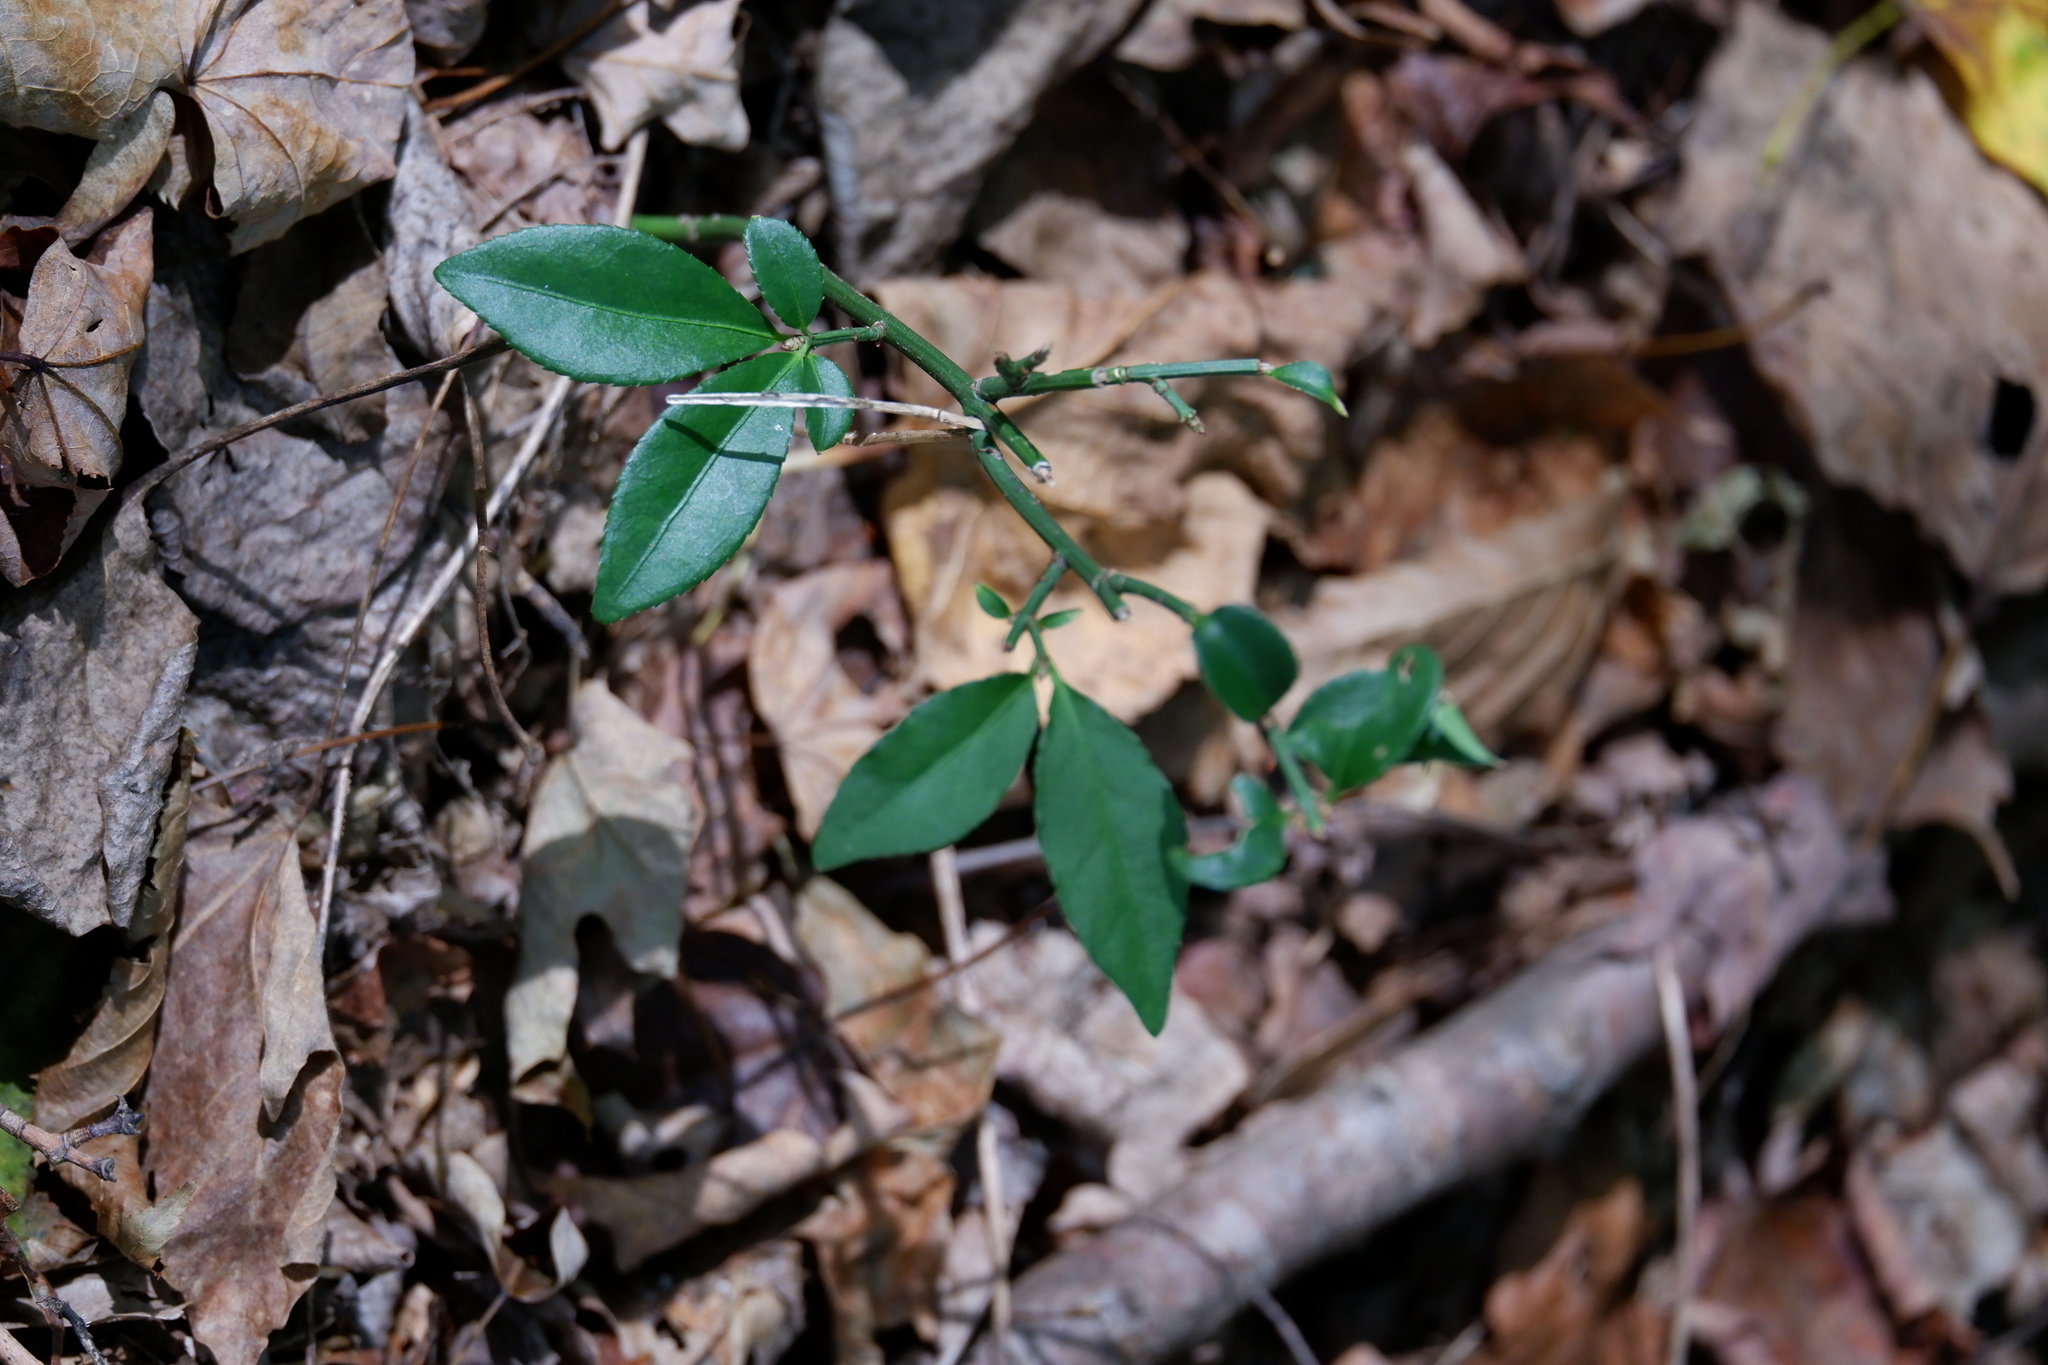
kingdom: Plantae
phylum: Tracheophyta
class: Magnoliopsida
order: Celastrales
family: Celastraceae
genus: Euonymus
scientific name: Euonymus americanus
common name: Bursting-heart
